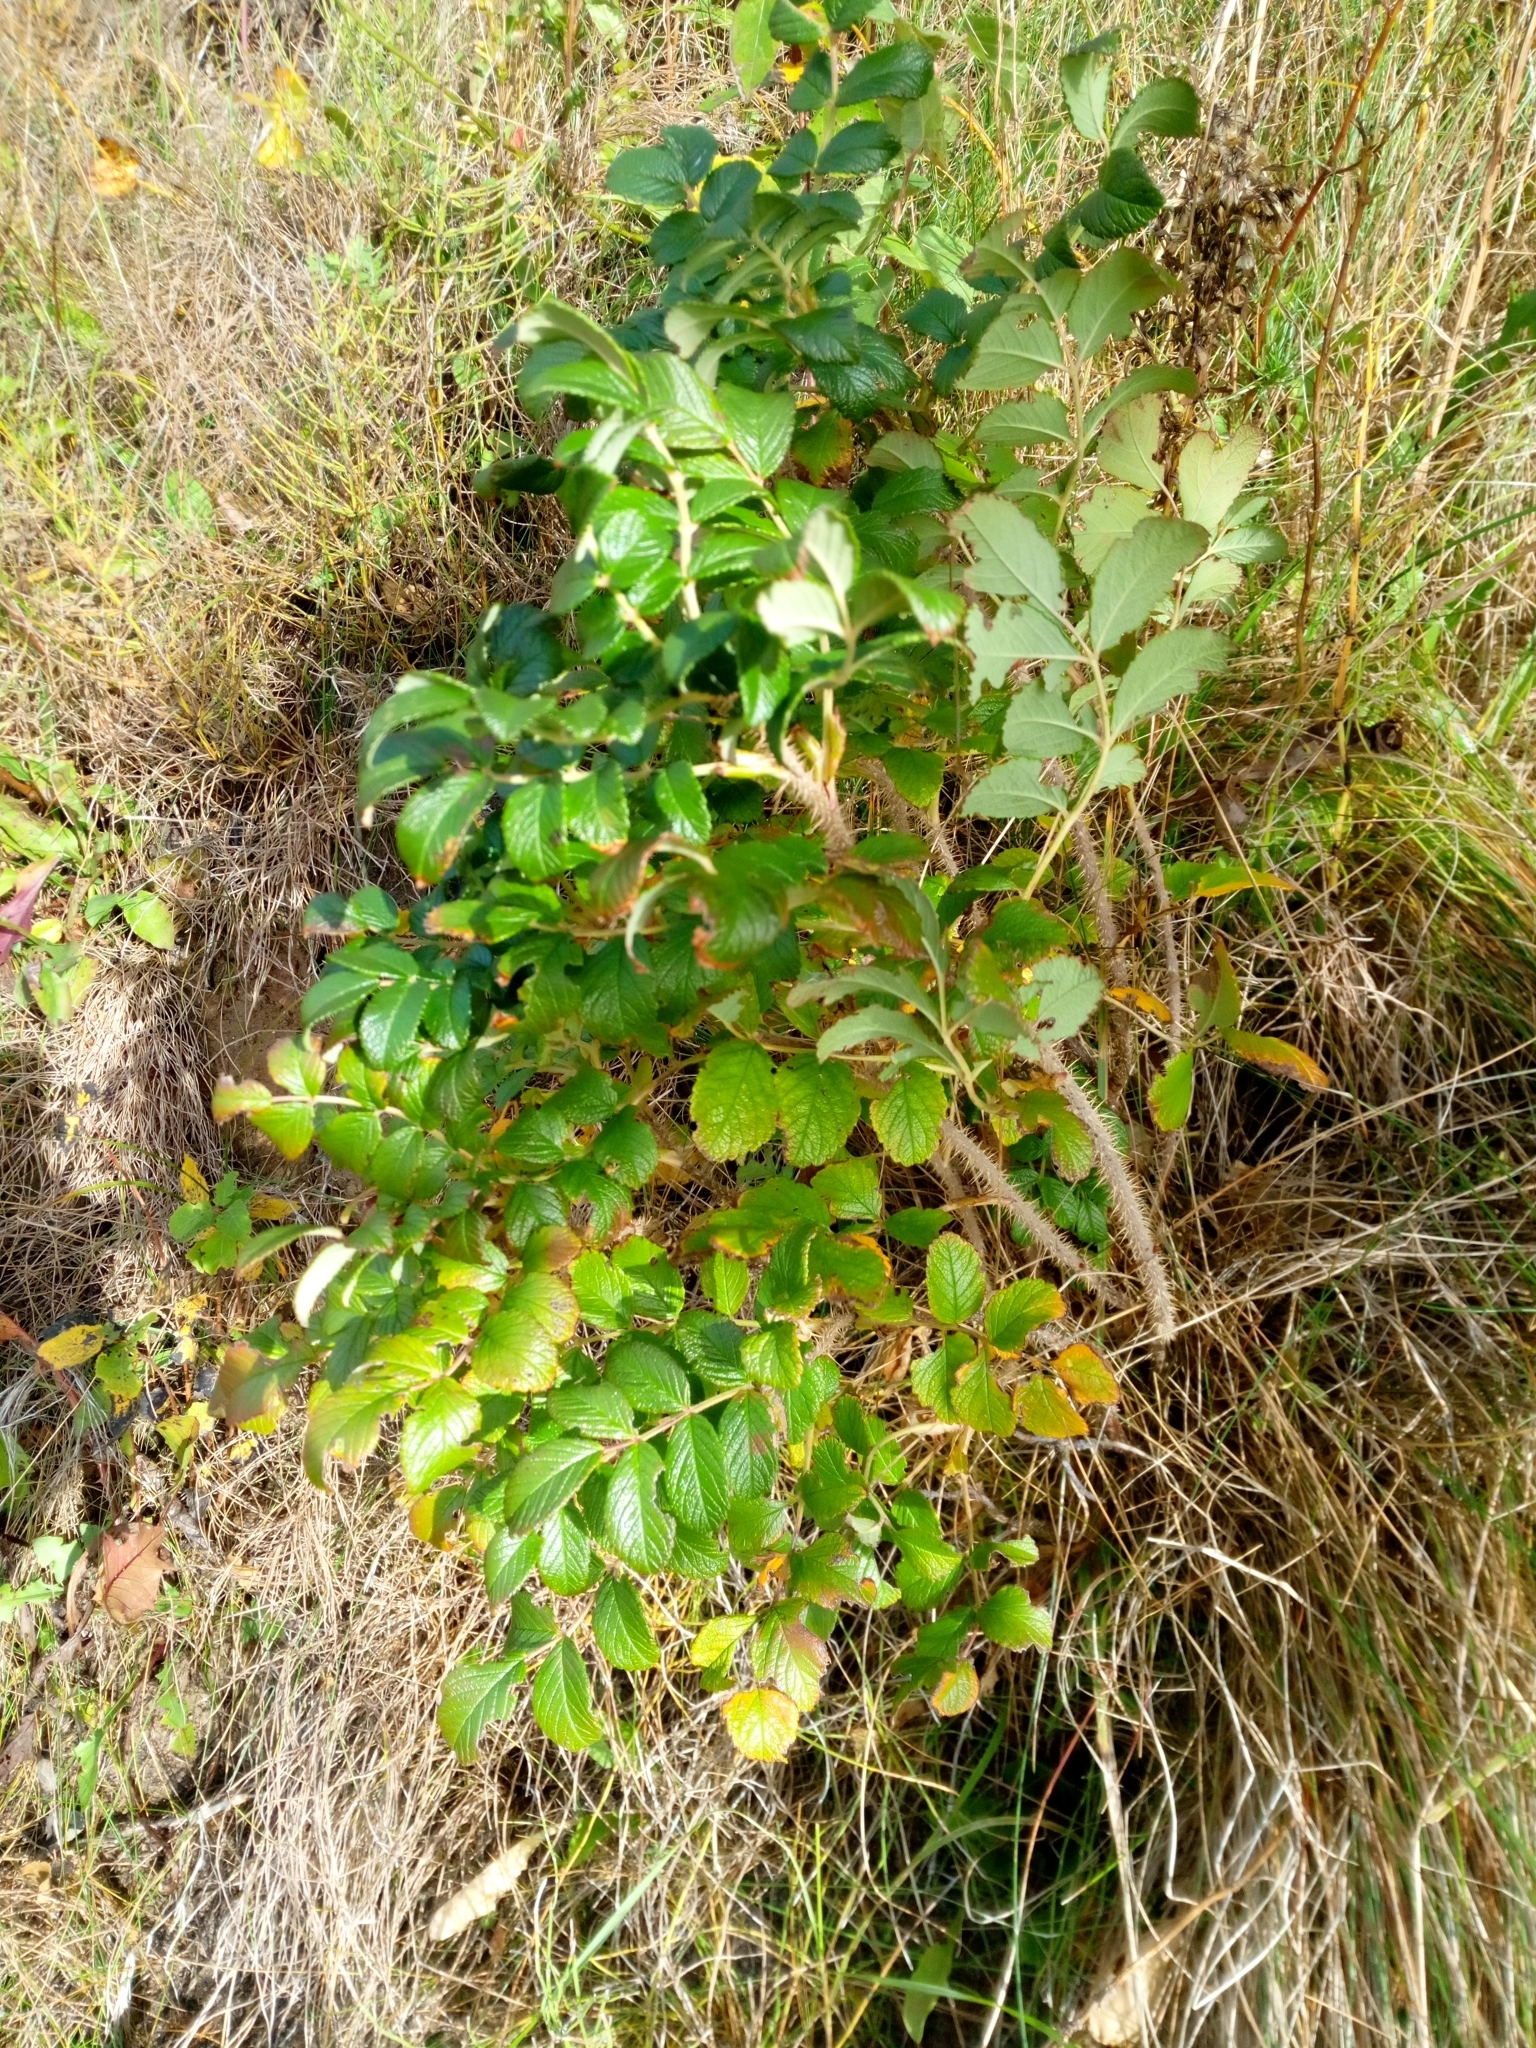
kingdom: Plantae
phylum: Tracheophyta
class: Magnoliopsida
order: Rosales
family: Rosaceae
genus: Rosa
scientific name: Rosa rugosa
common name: Japanese rose
